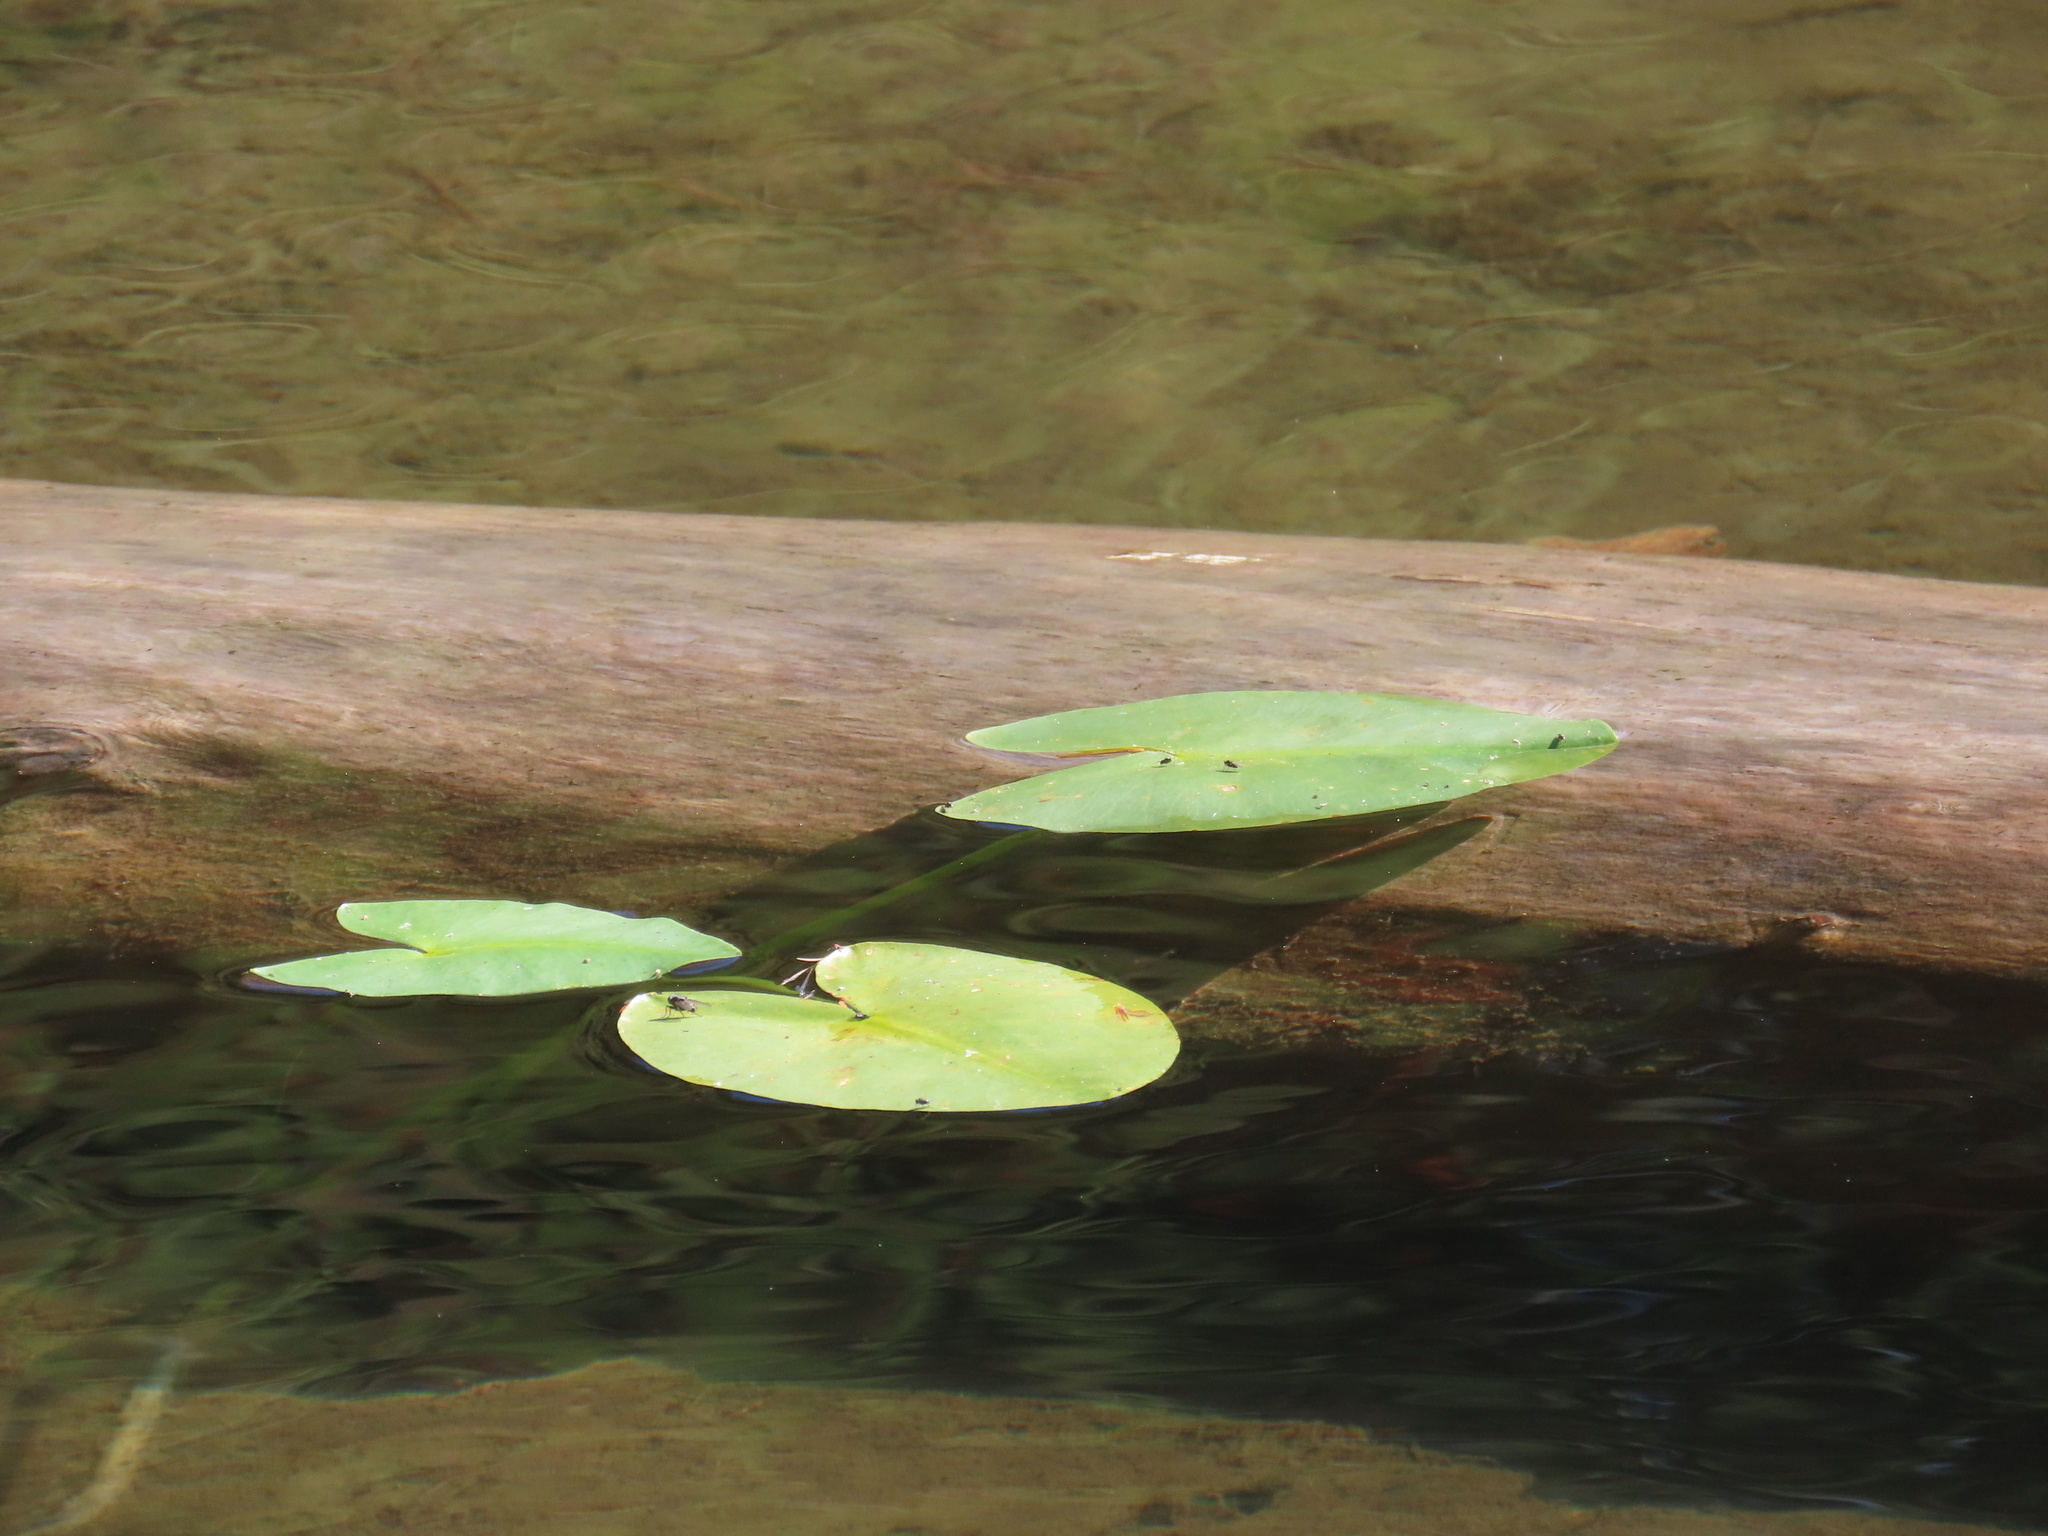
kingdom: Plantae
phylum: Tracheophyta
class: Magnoliopsida
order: Nymphaeales
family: Nymphaeaceae
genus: Nuphar
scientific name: Nuphar polysepala
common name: Rocky mountain cow-lily
